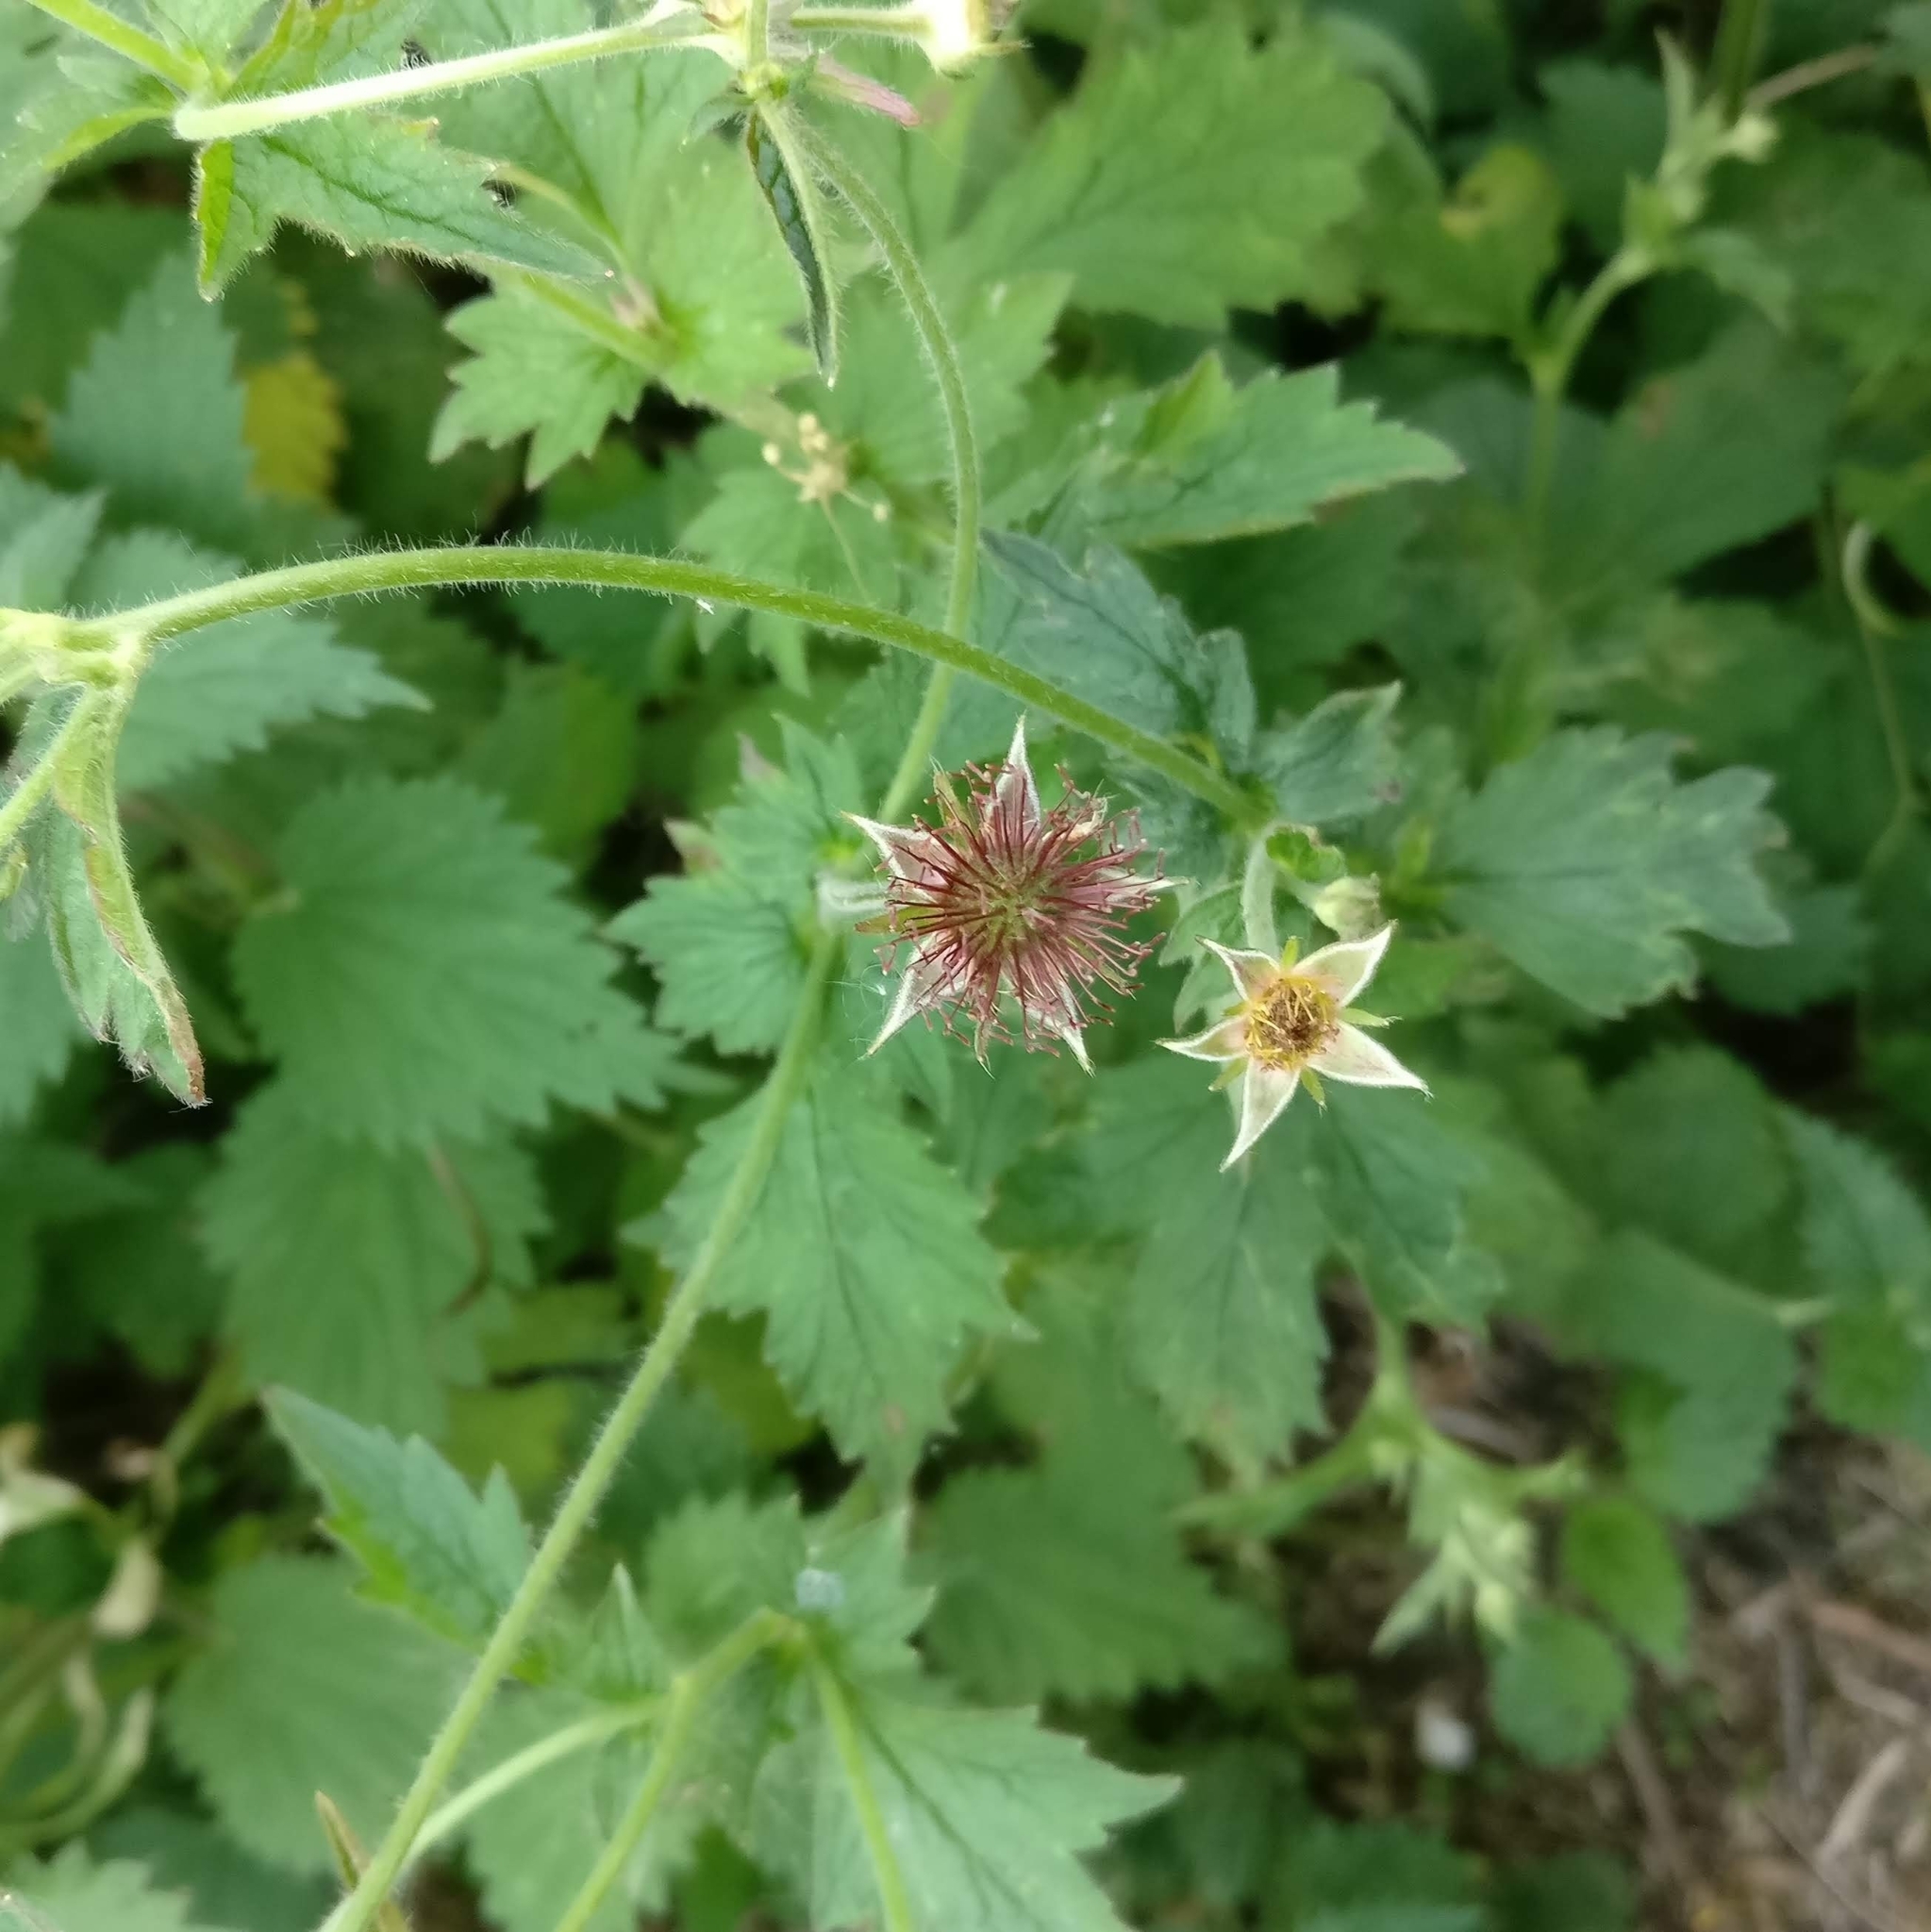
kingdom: Plantae
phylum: Tracheophyta
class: Magnoliopsida
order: Rosales
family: Rosaceae
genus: Geum
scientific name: Geum urbanum
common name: Wood avens
